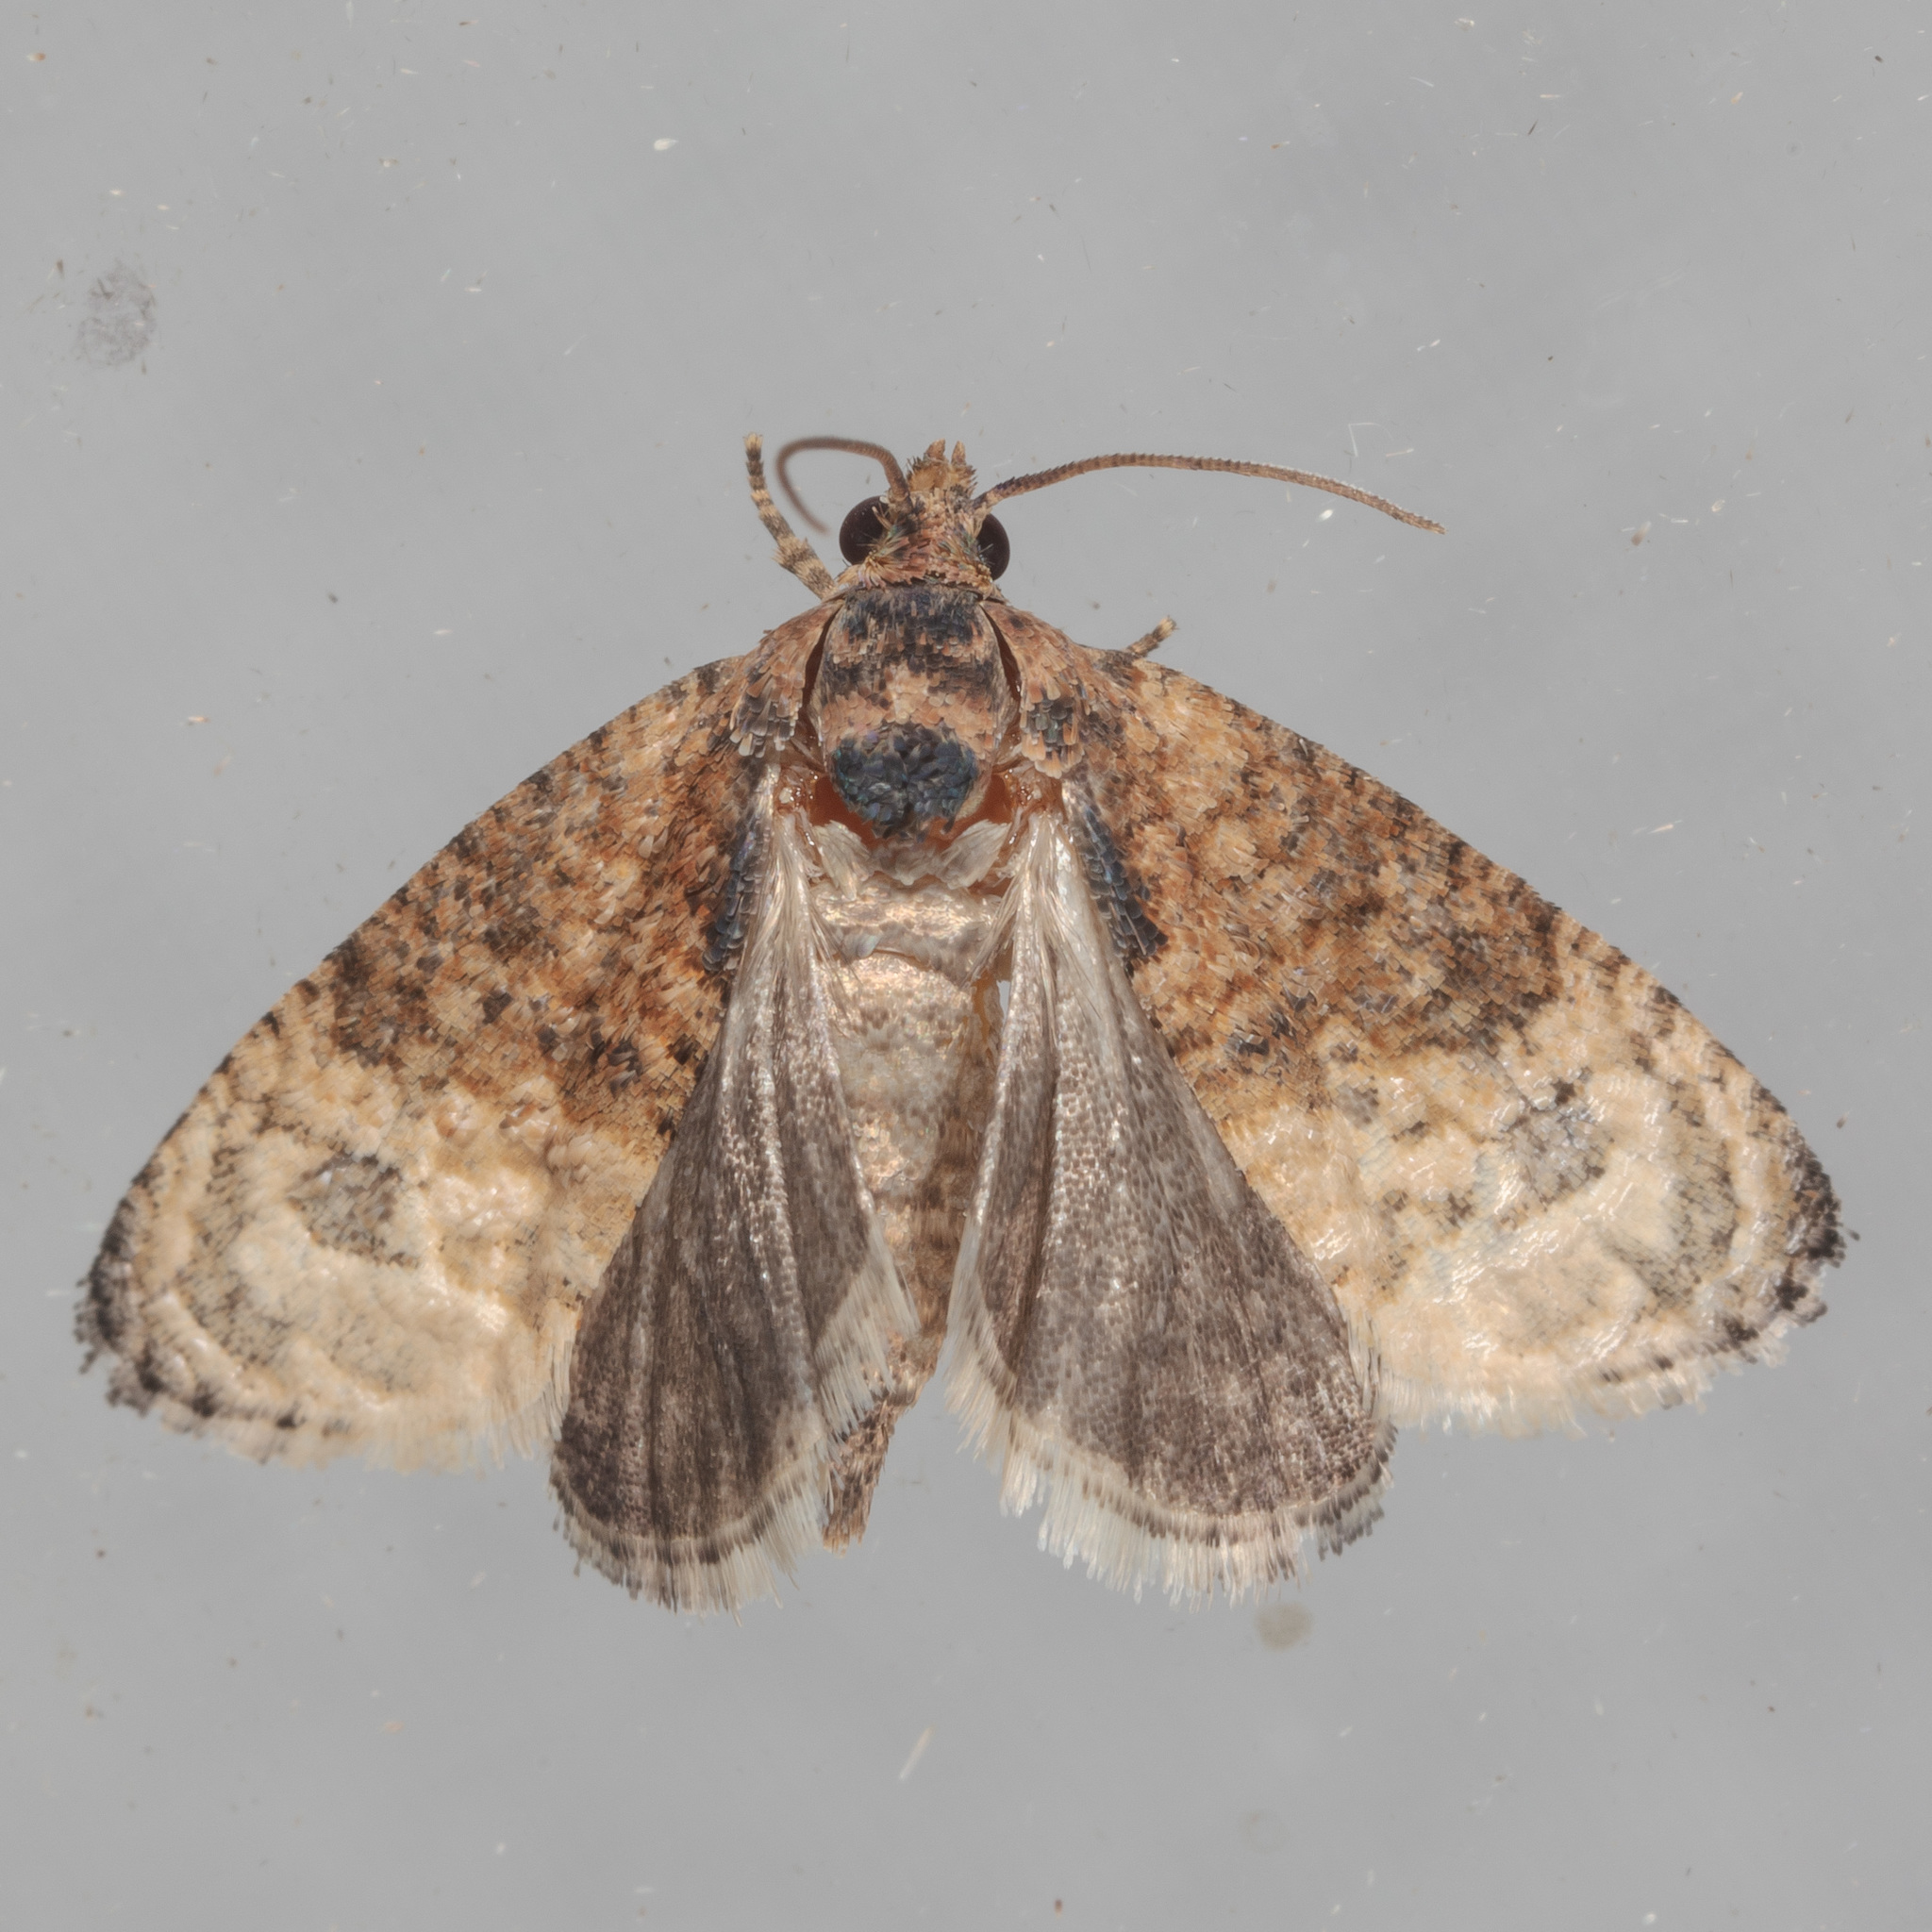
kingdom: Animalia
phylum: Arthropoda
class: Insecta
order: Lepidoptera
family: Tortricidae
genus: Ecdytolopha
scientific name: Ecdytolopha mana
